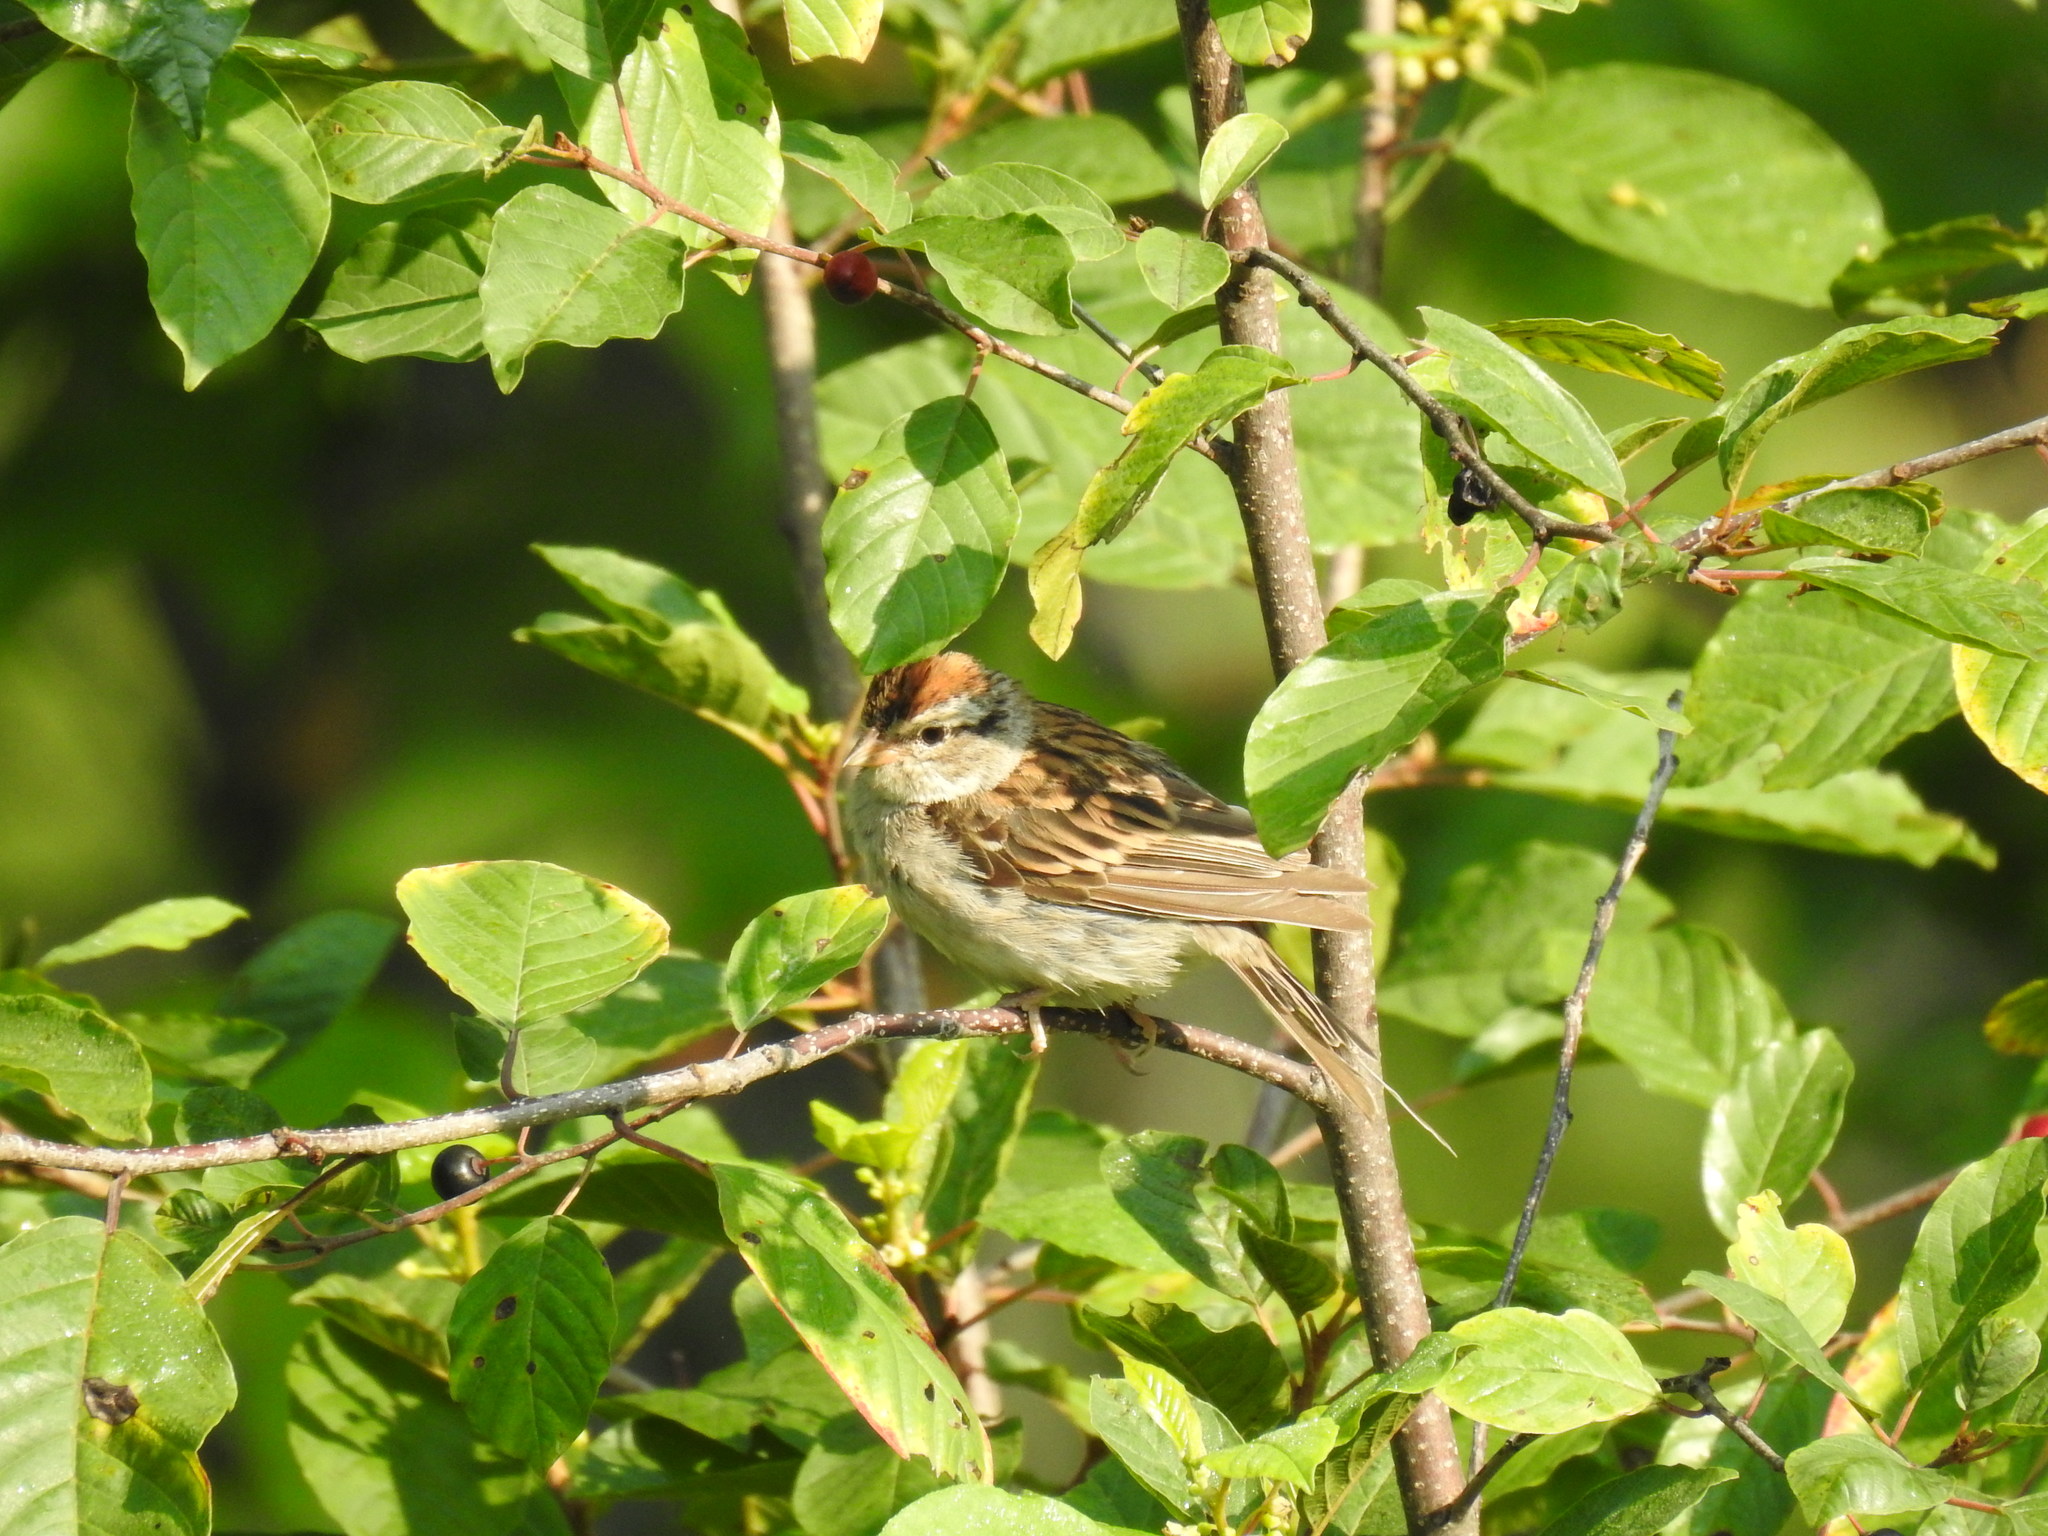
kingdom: Animalia
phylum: Chordata
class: Aves
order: Passeriformes
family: Passerellidae
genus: Spizella
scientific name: Spizella passerina
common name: Chipping sparrow
